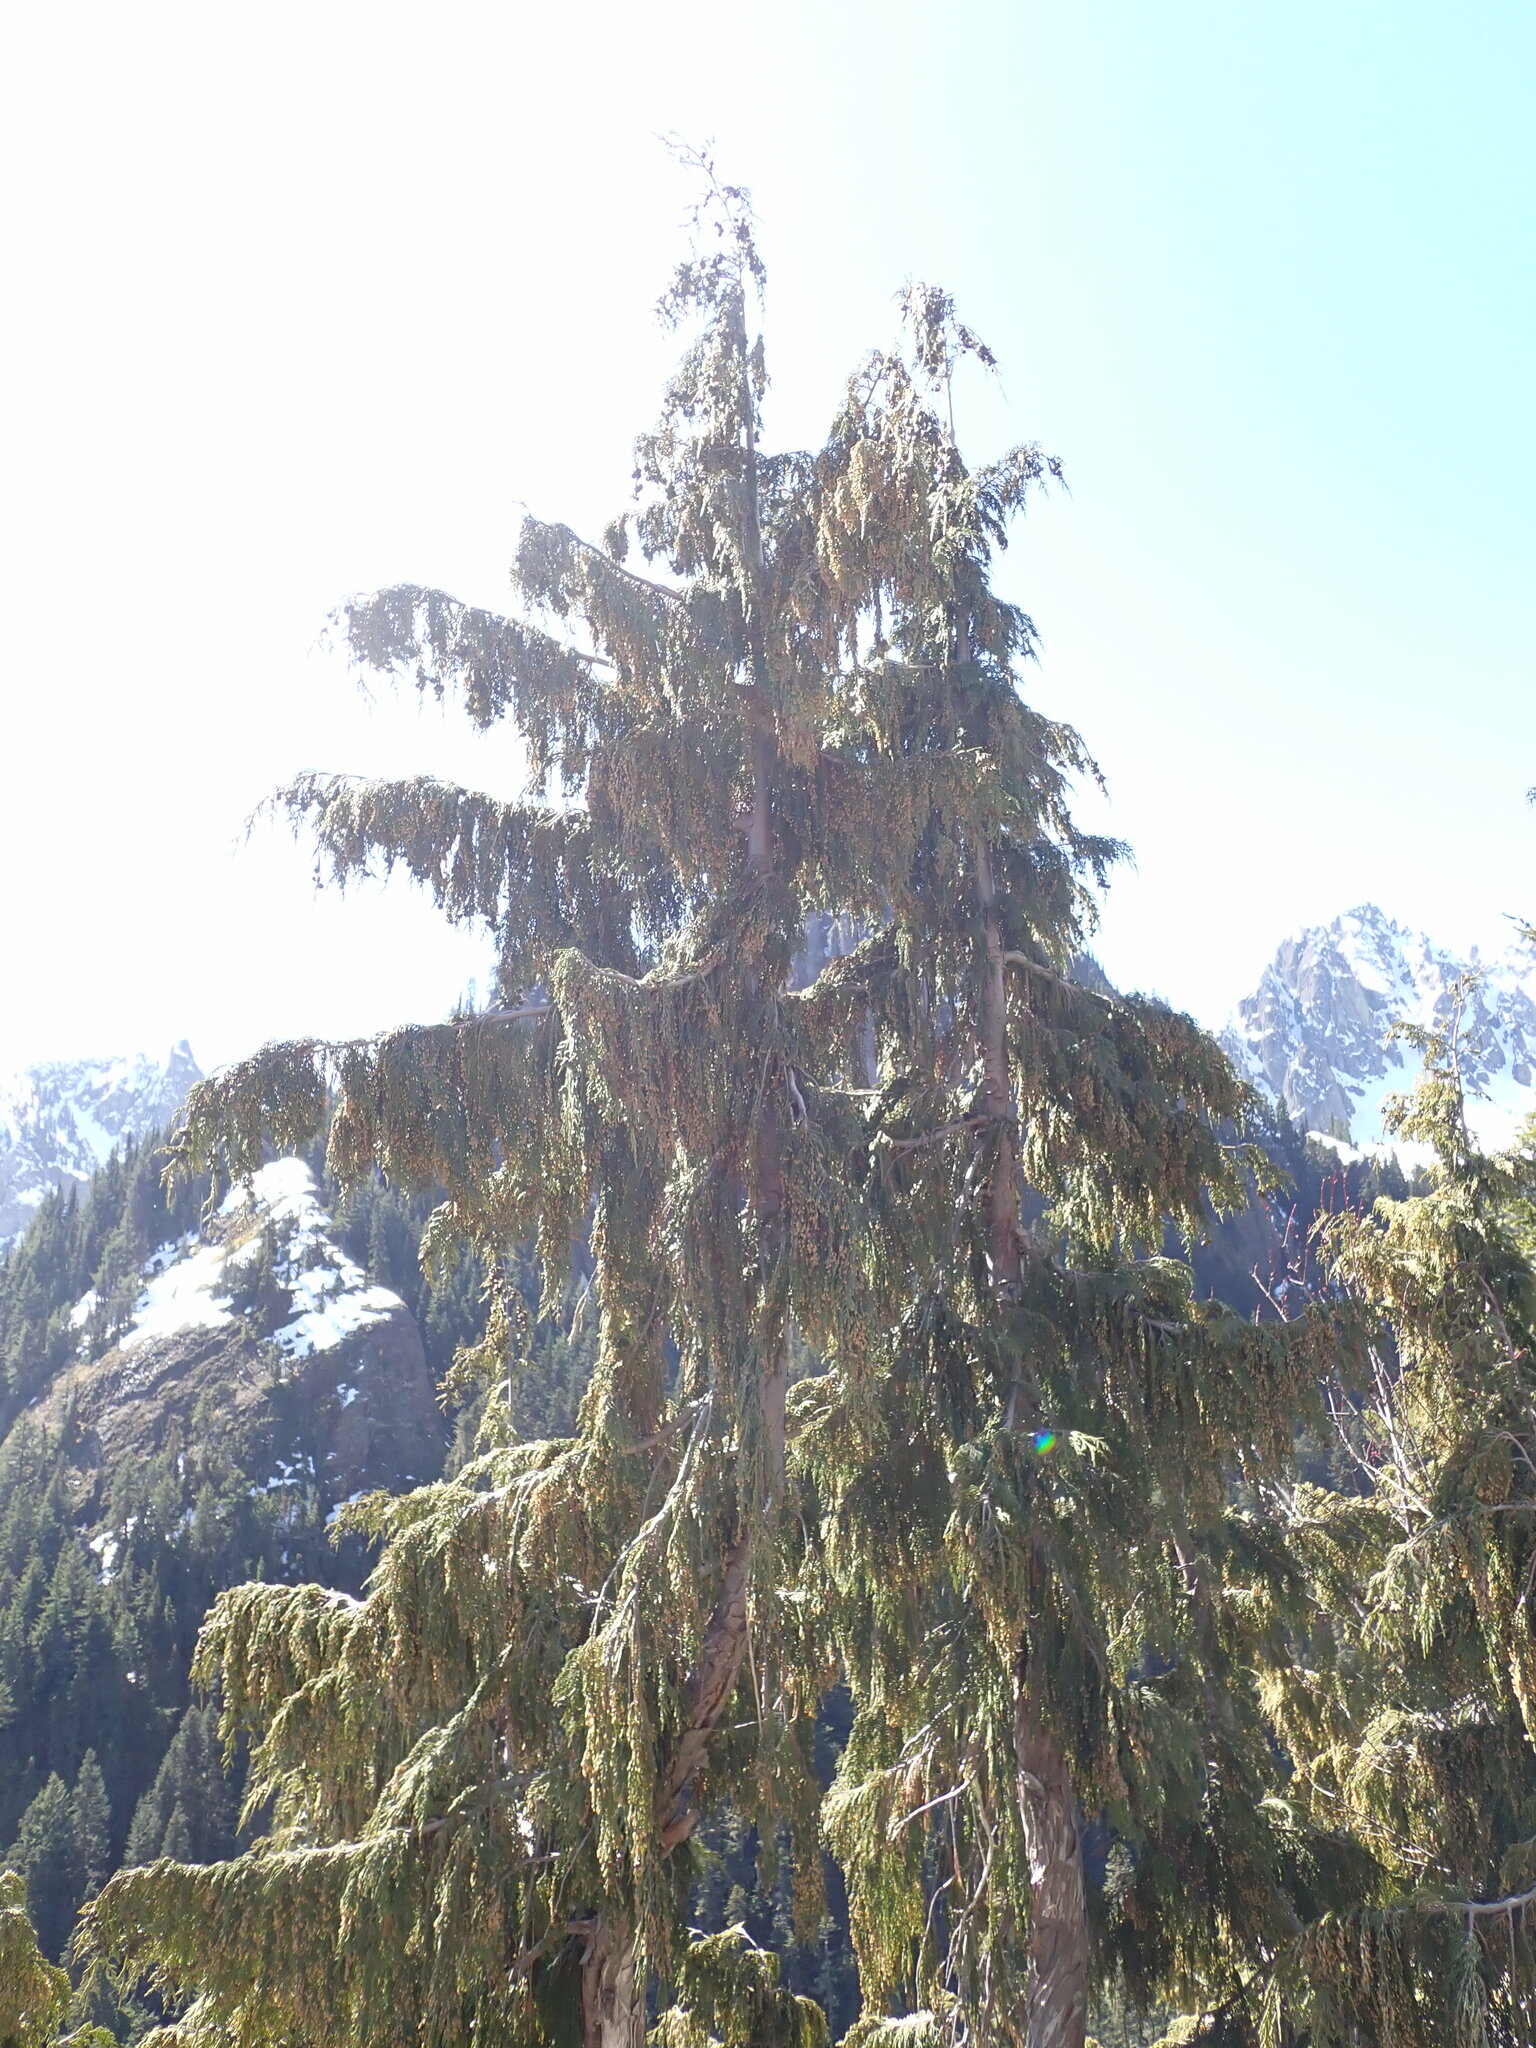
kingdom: Plantae
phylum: Tracheophyta
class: Pinopsida
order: Pinales
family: Cupressaceae
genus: Xanthocyparis
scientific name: Xanthocyparis nootkatensis
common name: Nootka cypress
